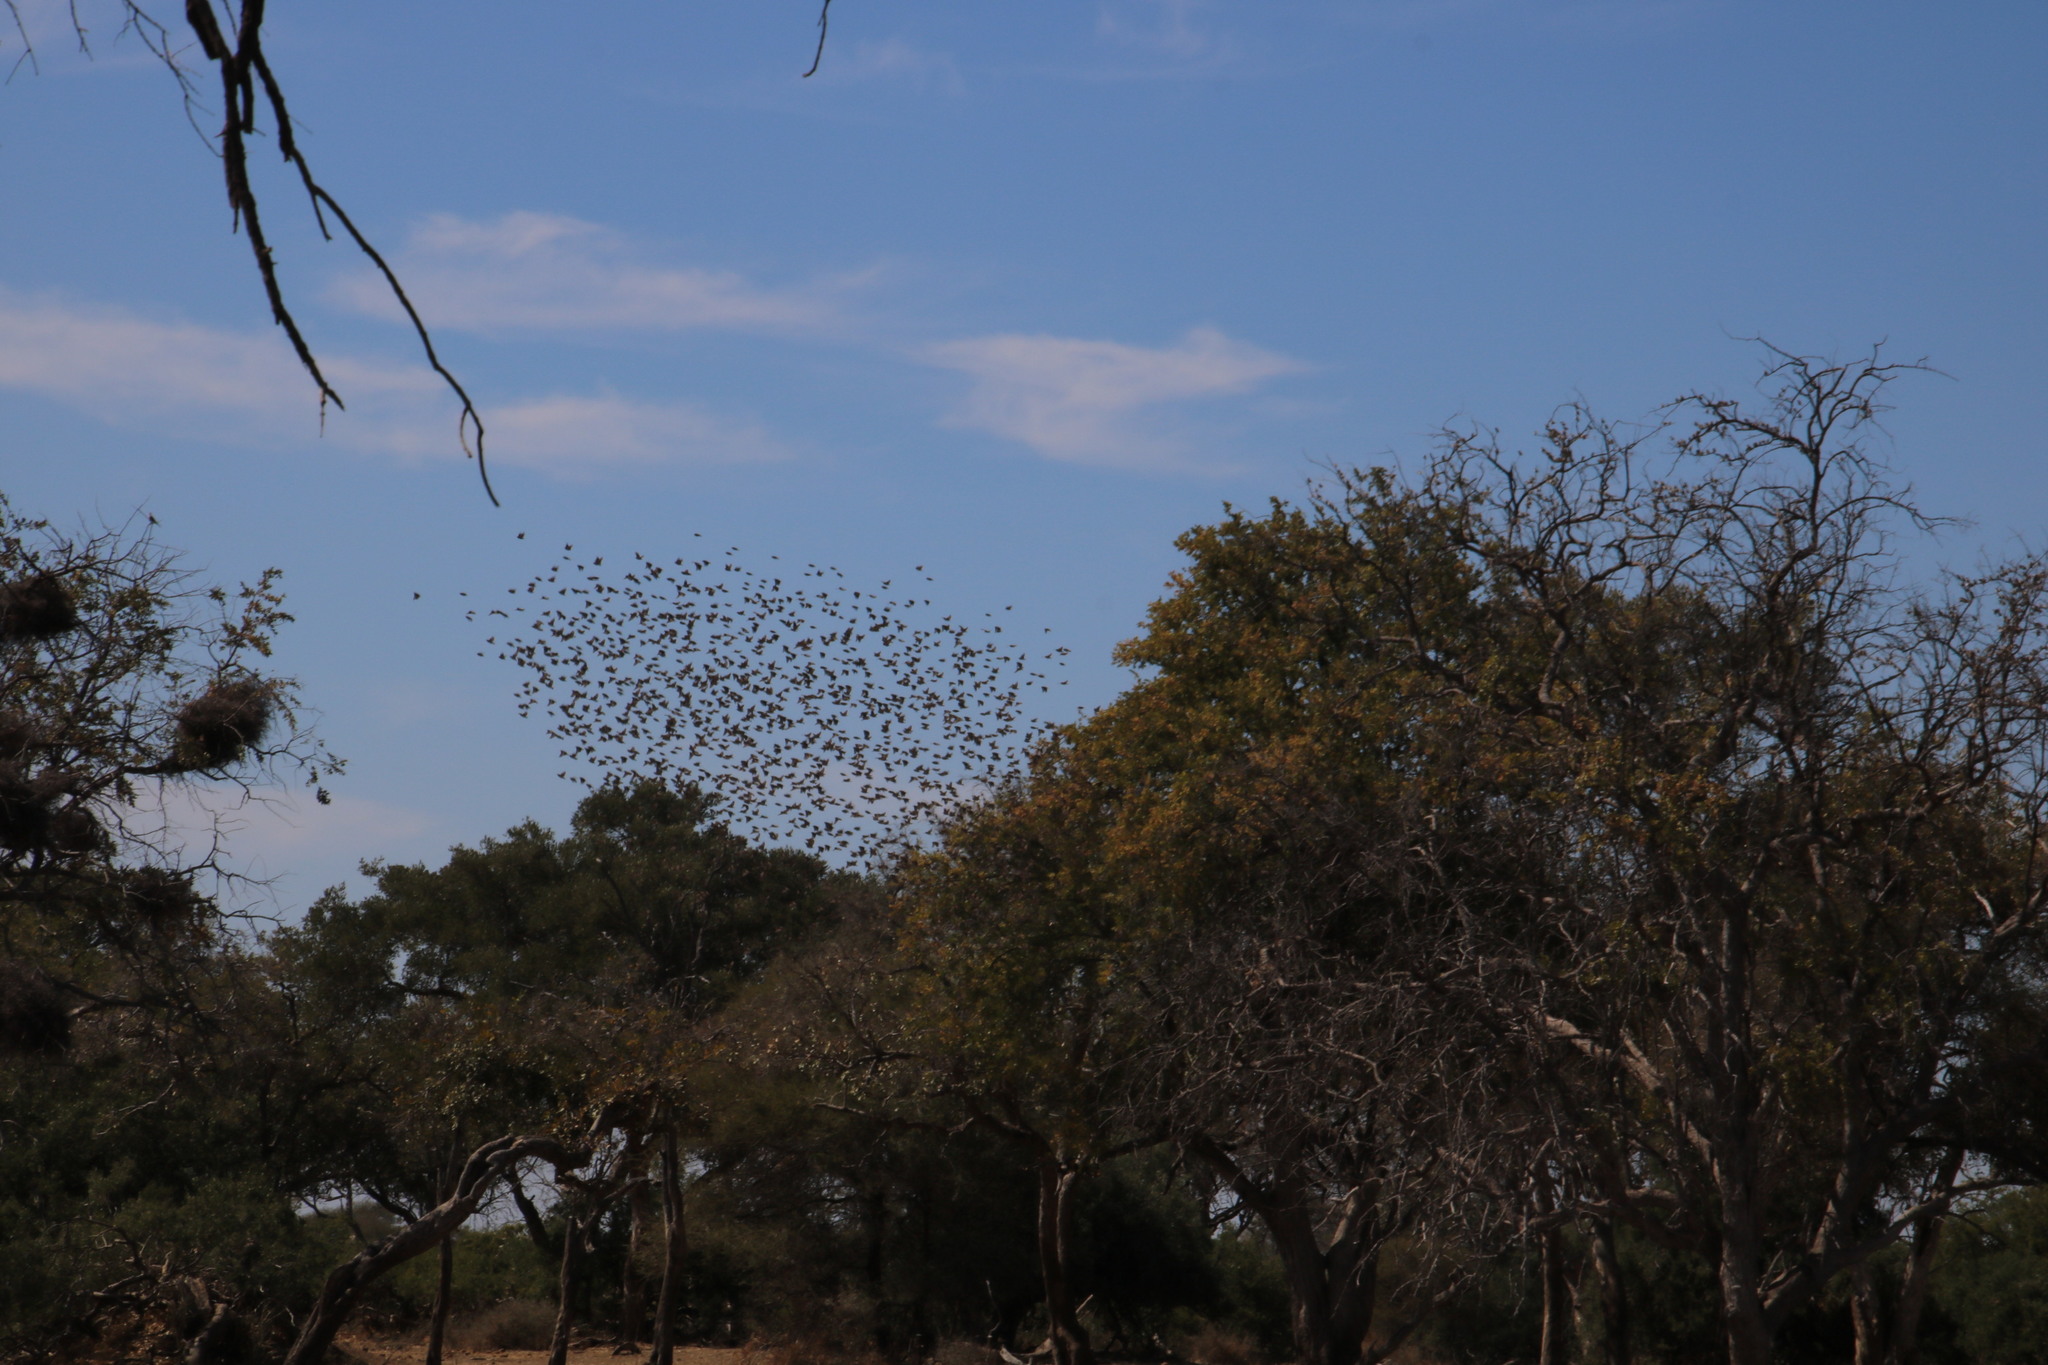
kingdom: Animalia
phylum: Chordata
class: Aves
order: Passeriformes
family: Ploceidae
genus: Quelea
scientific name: Quelea quelea
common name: Red-billed quelea
